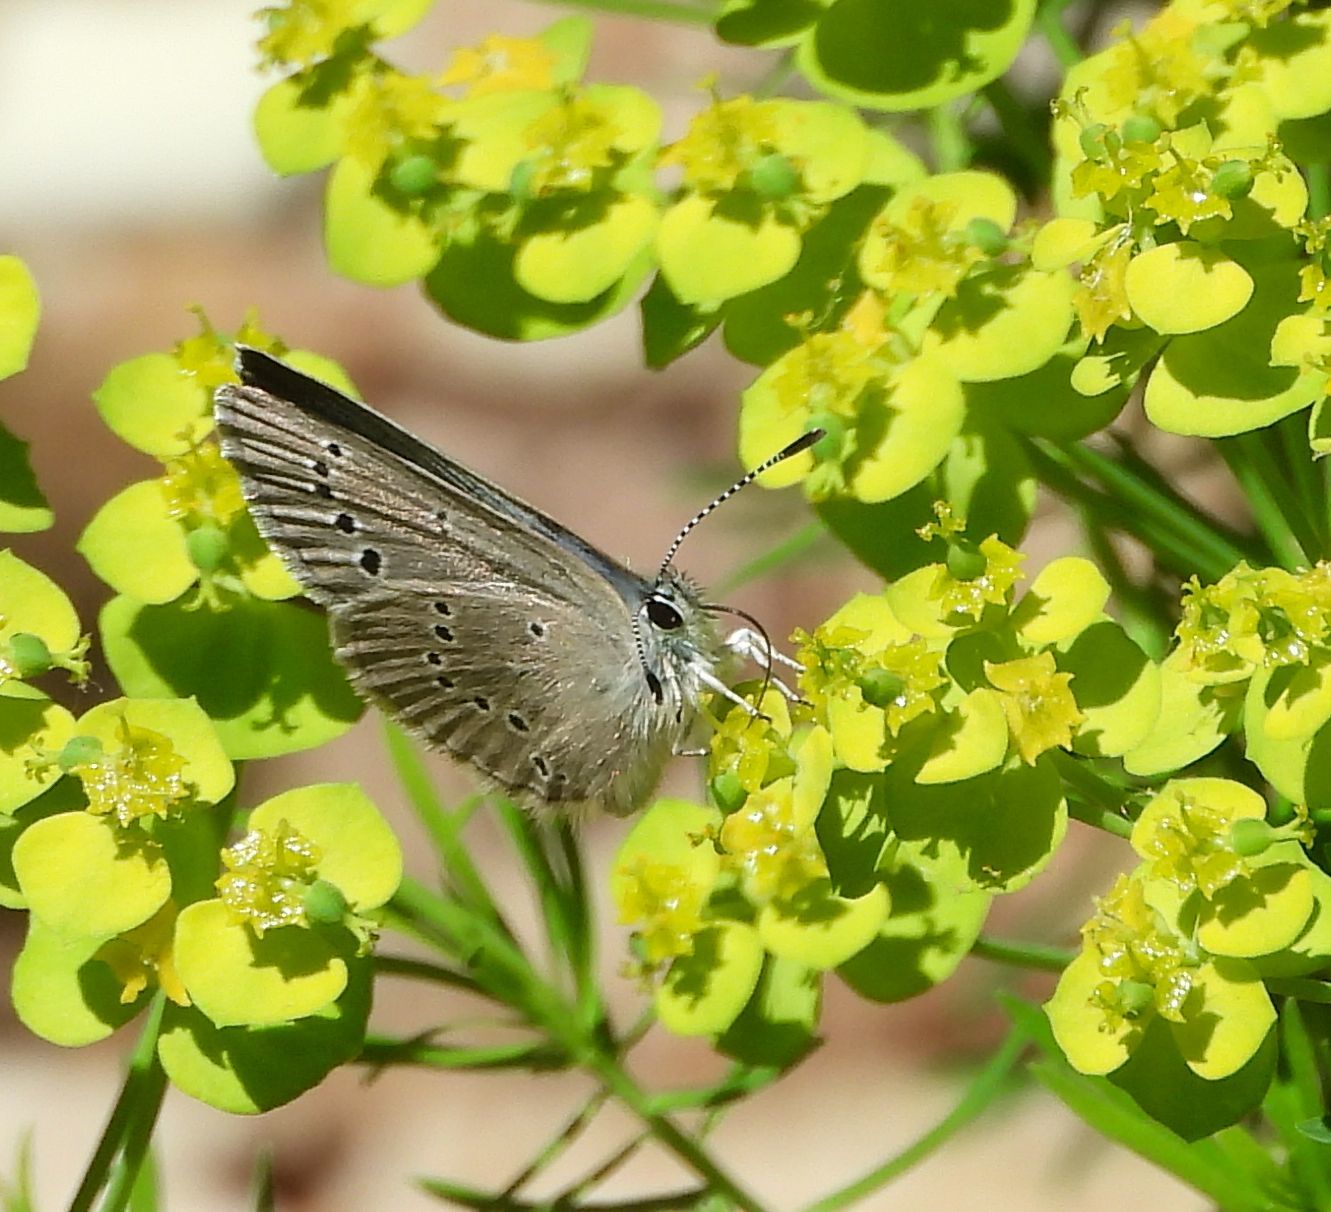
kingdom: Animalia
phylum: Arthropoda
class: Insecta
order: Lepidoptera
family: Lycaenidae
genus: Glaucopsyche
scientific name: Glaucopsyche lygdamus
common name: Silvery blue
